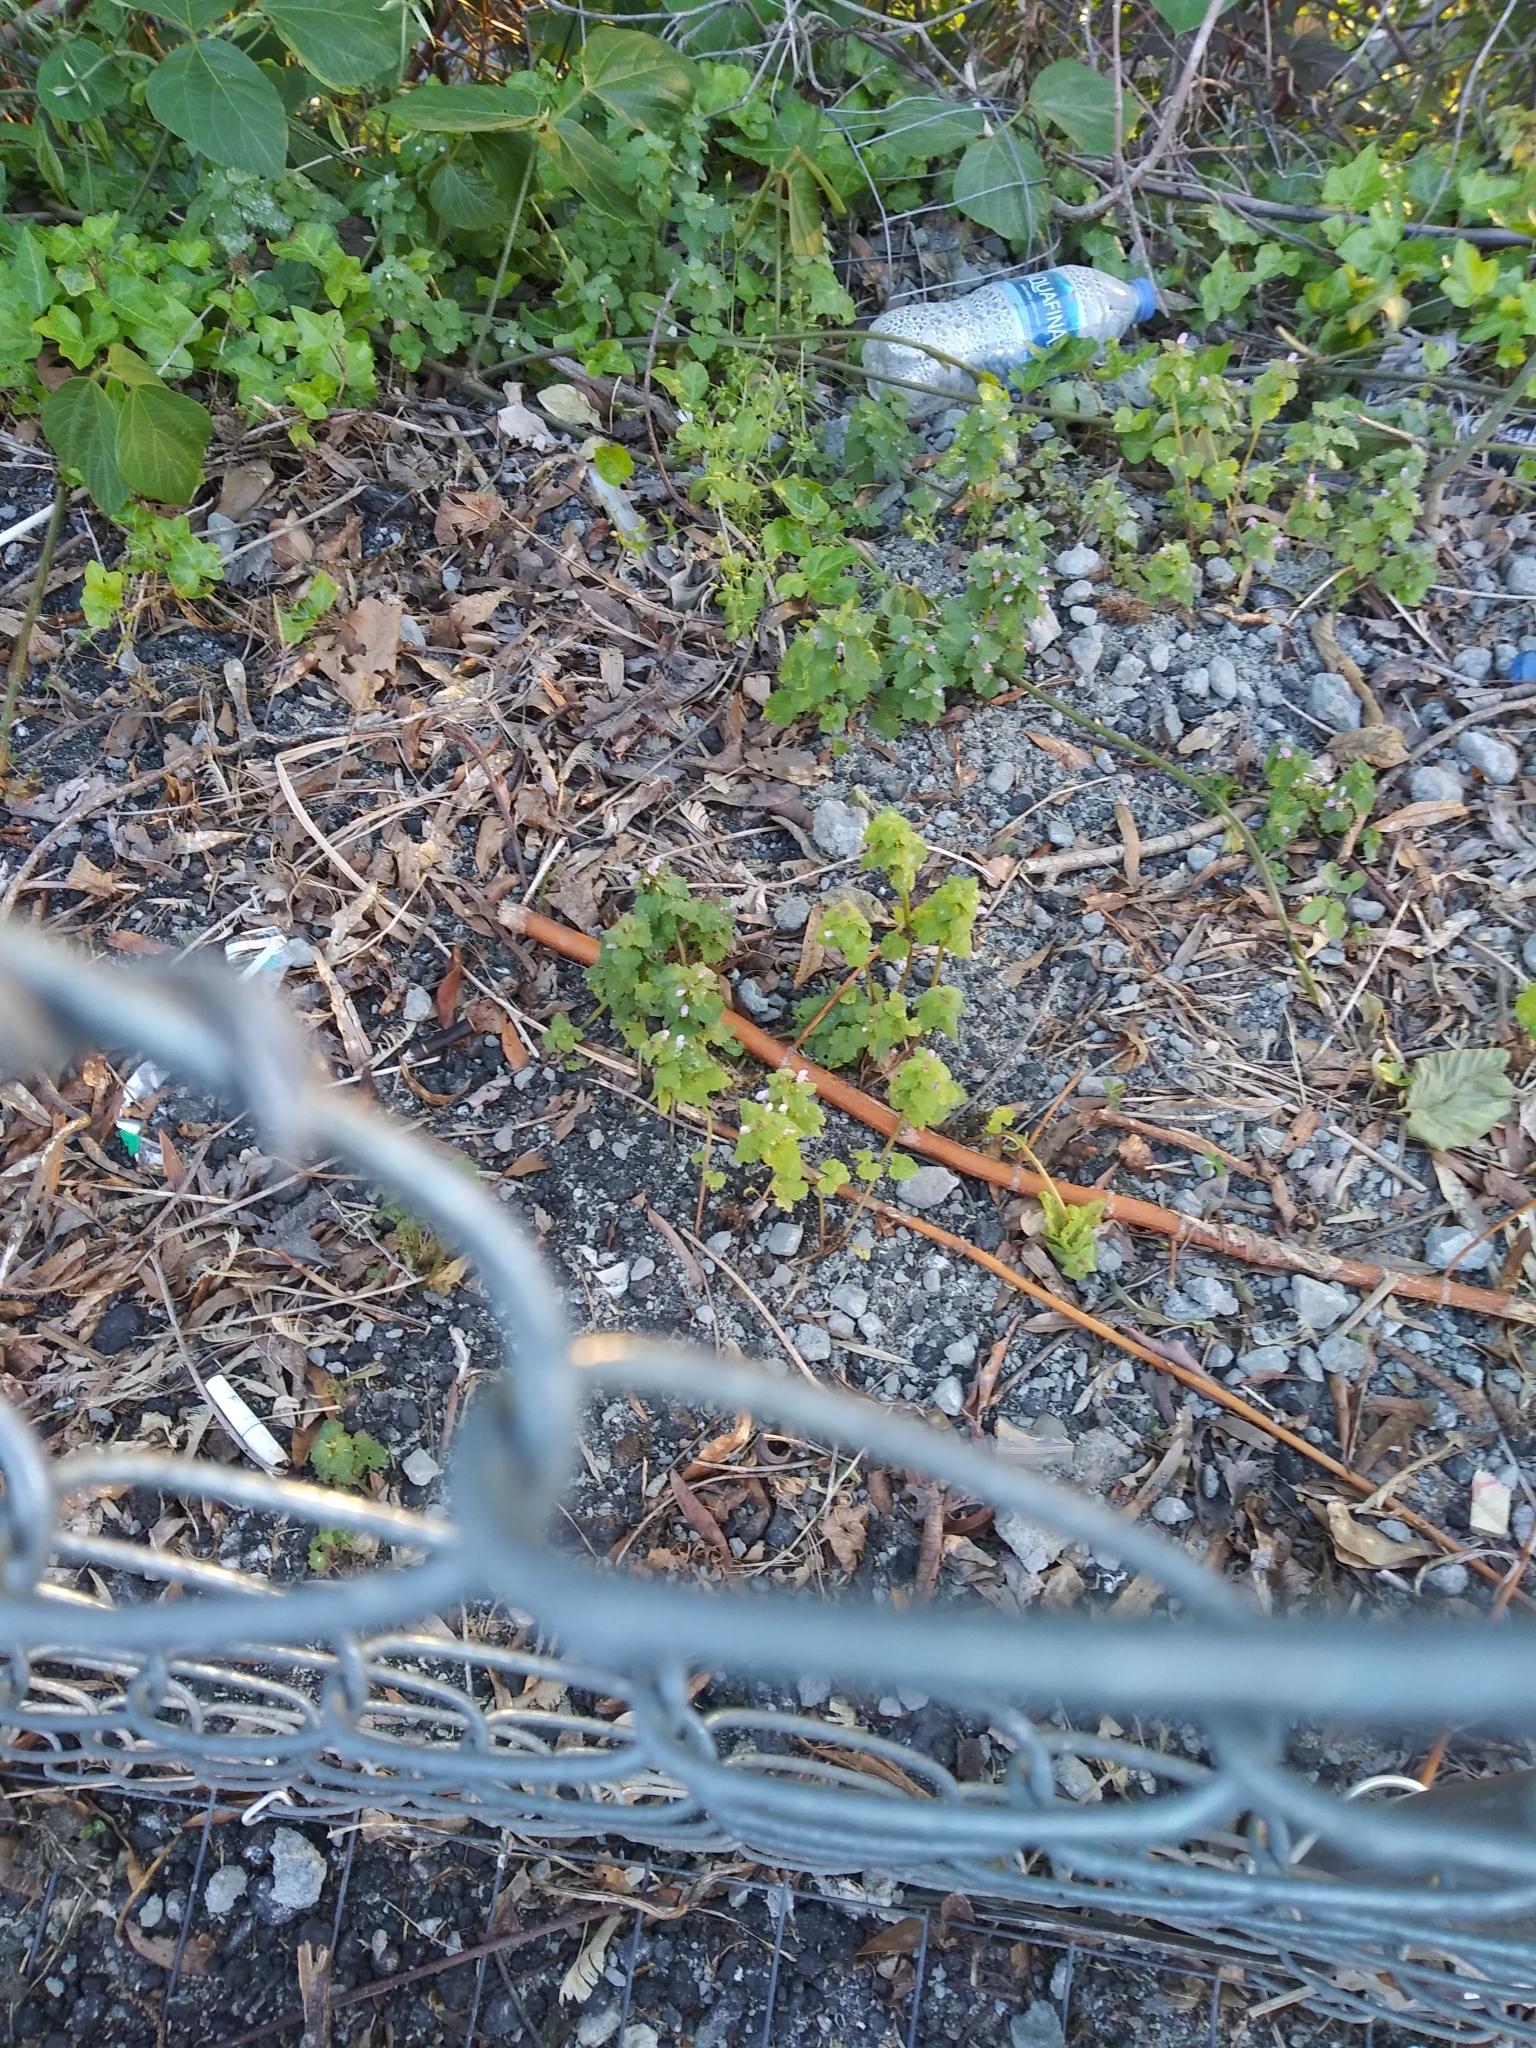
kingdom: Plantae
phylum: Tracheophyta
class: Magnoliopsida
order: Lamiales
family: Lamiaceae
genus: Lamium
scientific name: Lamium purpureum
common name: Red dead-nettle
